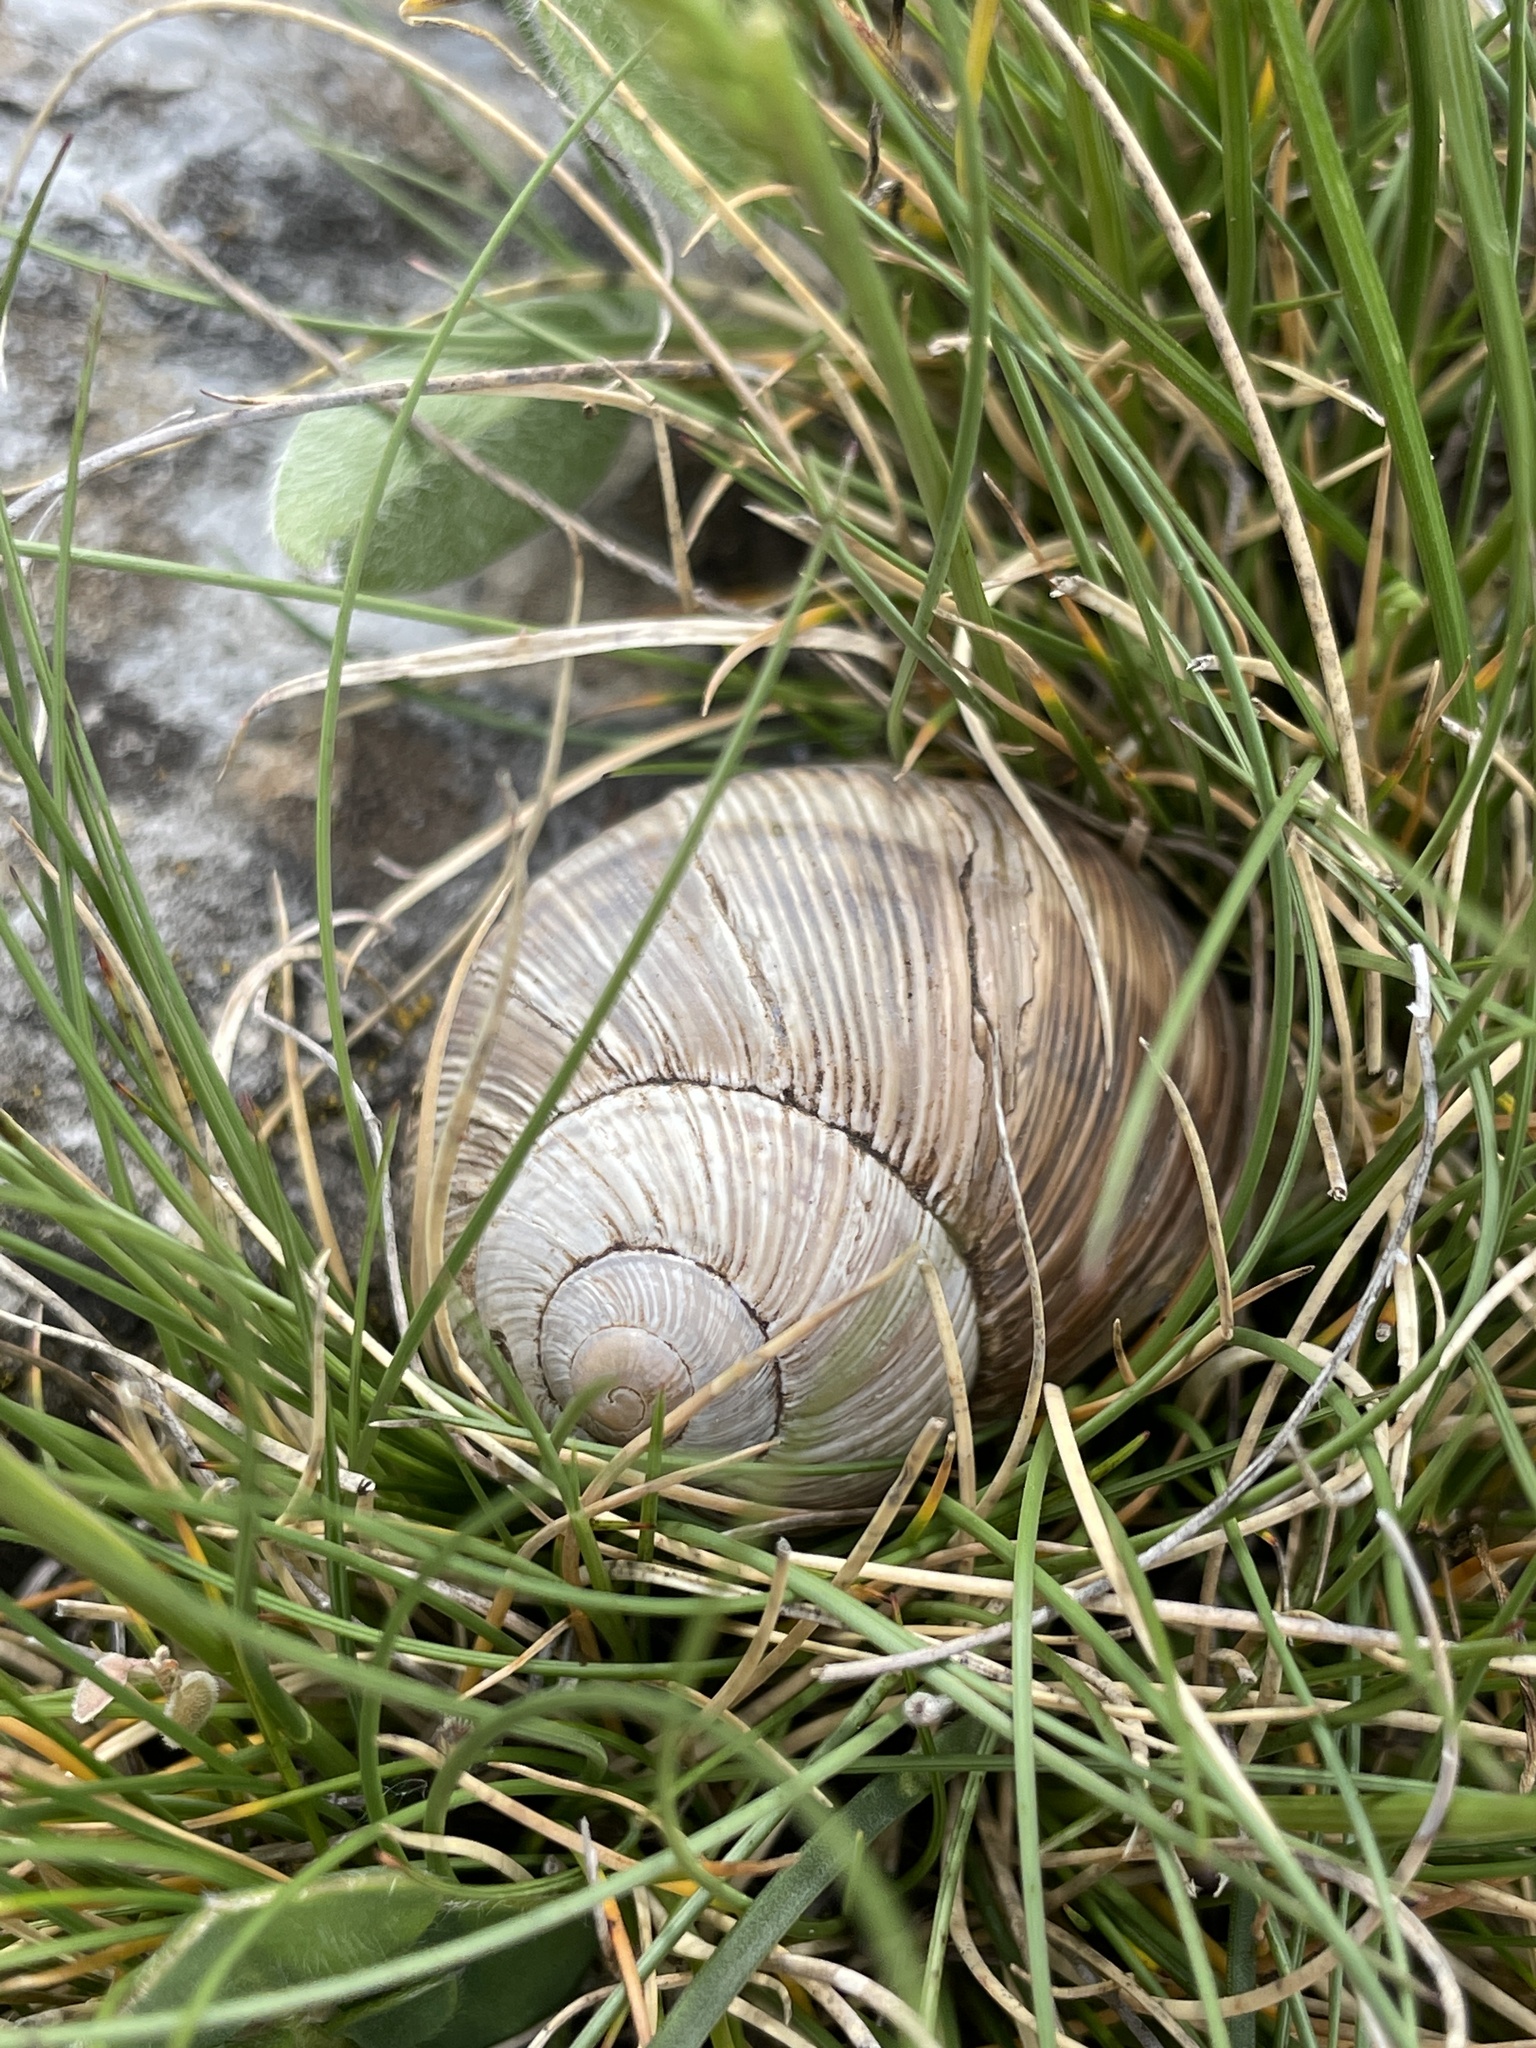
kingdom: Animalia
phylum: Mollusca
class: Gastropoda
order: Stylommatophora
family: Helicidae
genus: Helix
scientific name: Helix figulina
